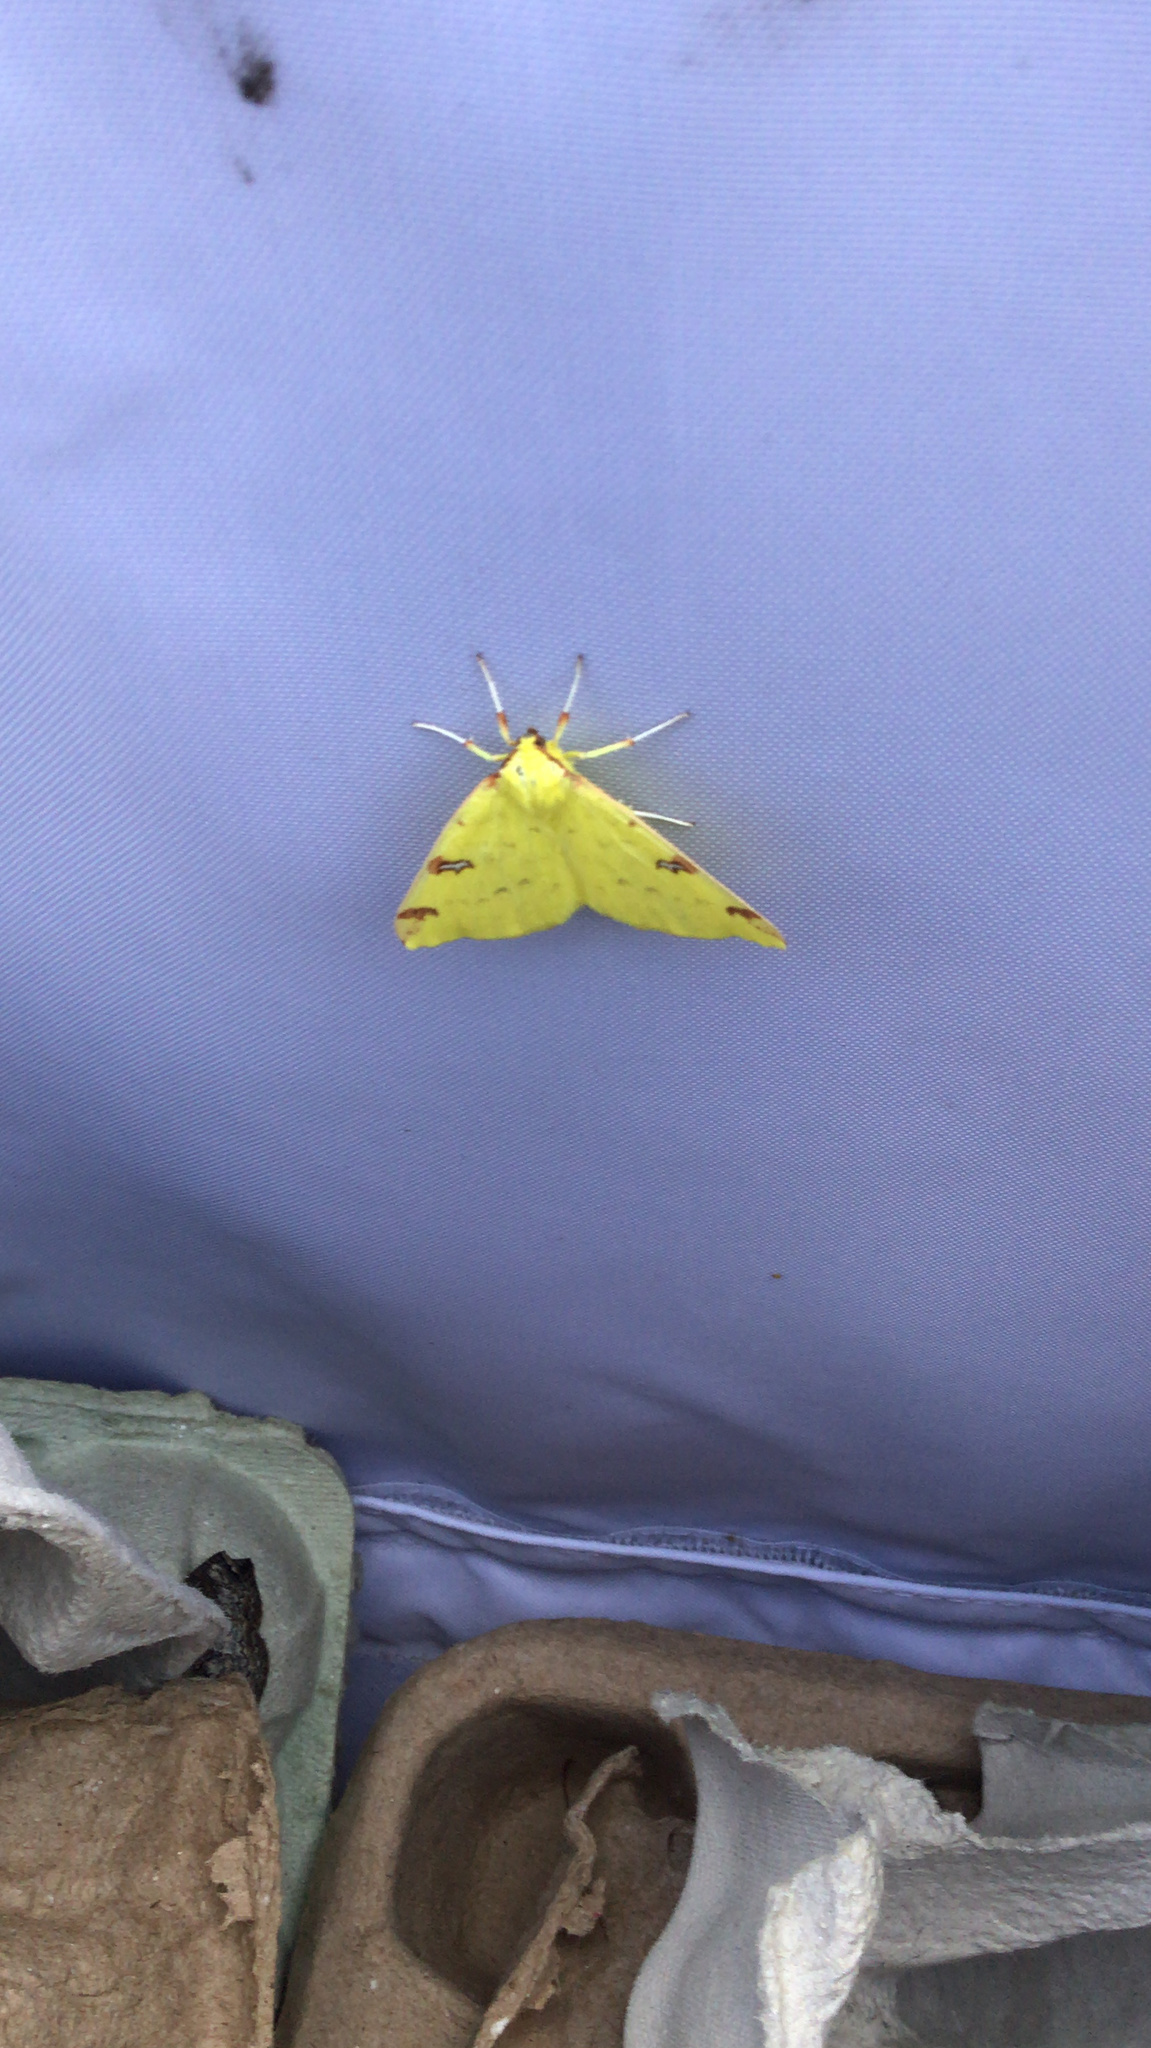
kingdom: Animalia
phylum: Arthropoda
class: Insecta
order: Lepidoptera
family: Geometridae
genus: Opisthograptis
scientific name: Opisthograptis luteolata
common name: Brimstone moth
